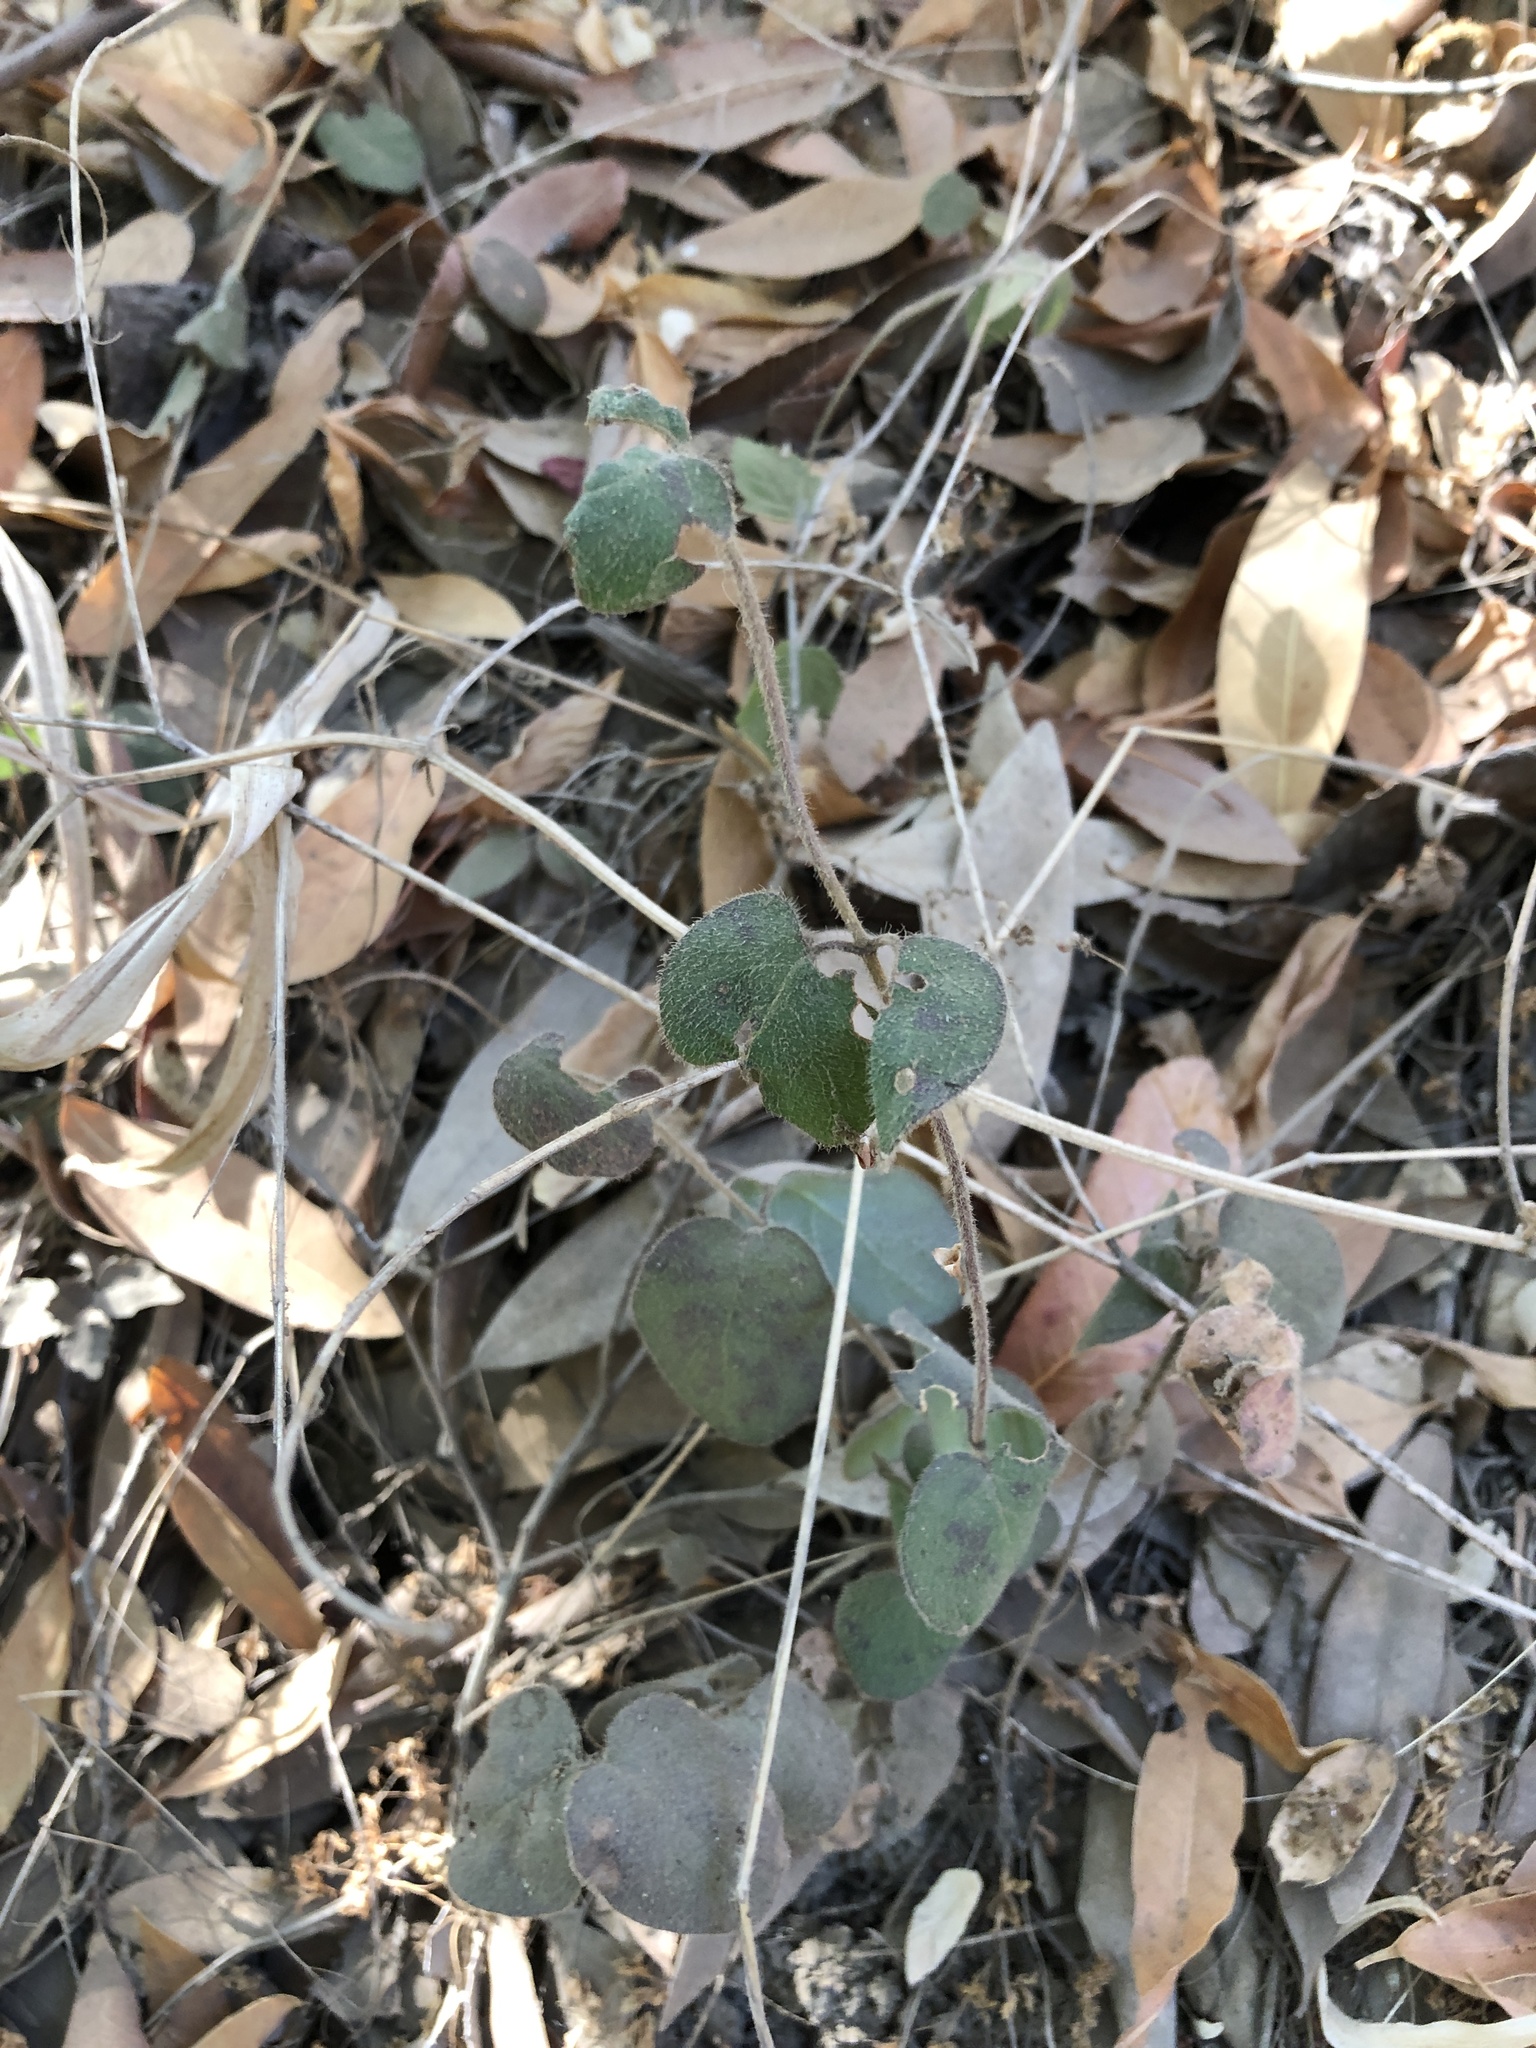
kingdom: Plantae
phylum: Tracheophyta
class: Magnoliopsida
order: Dipsacales
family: Caprifoliaceae
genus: Lonicera
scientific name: Lonicera hispidula
